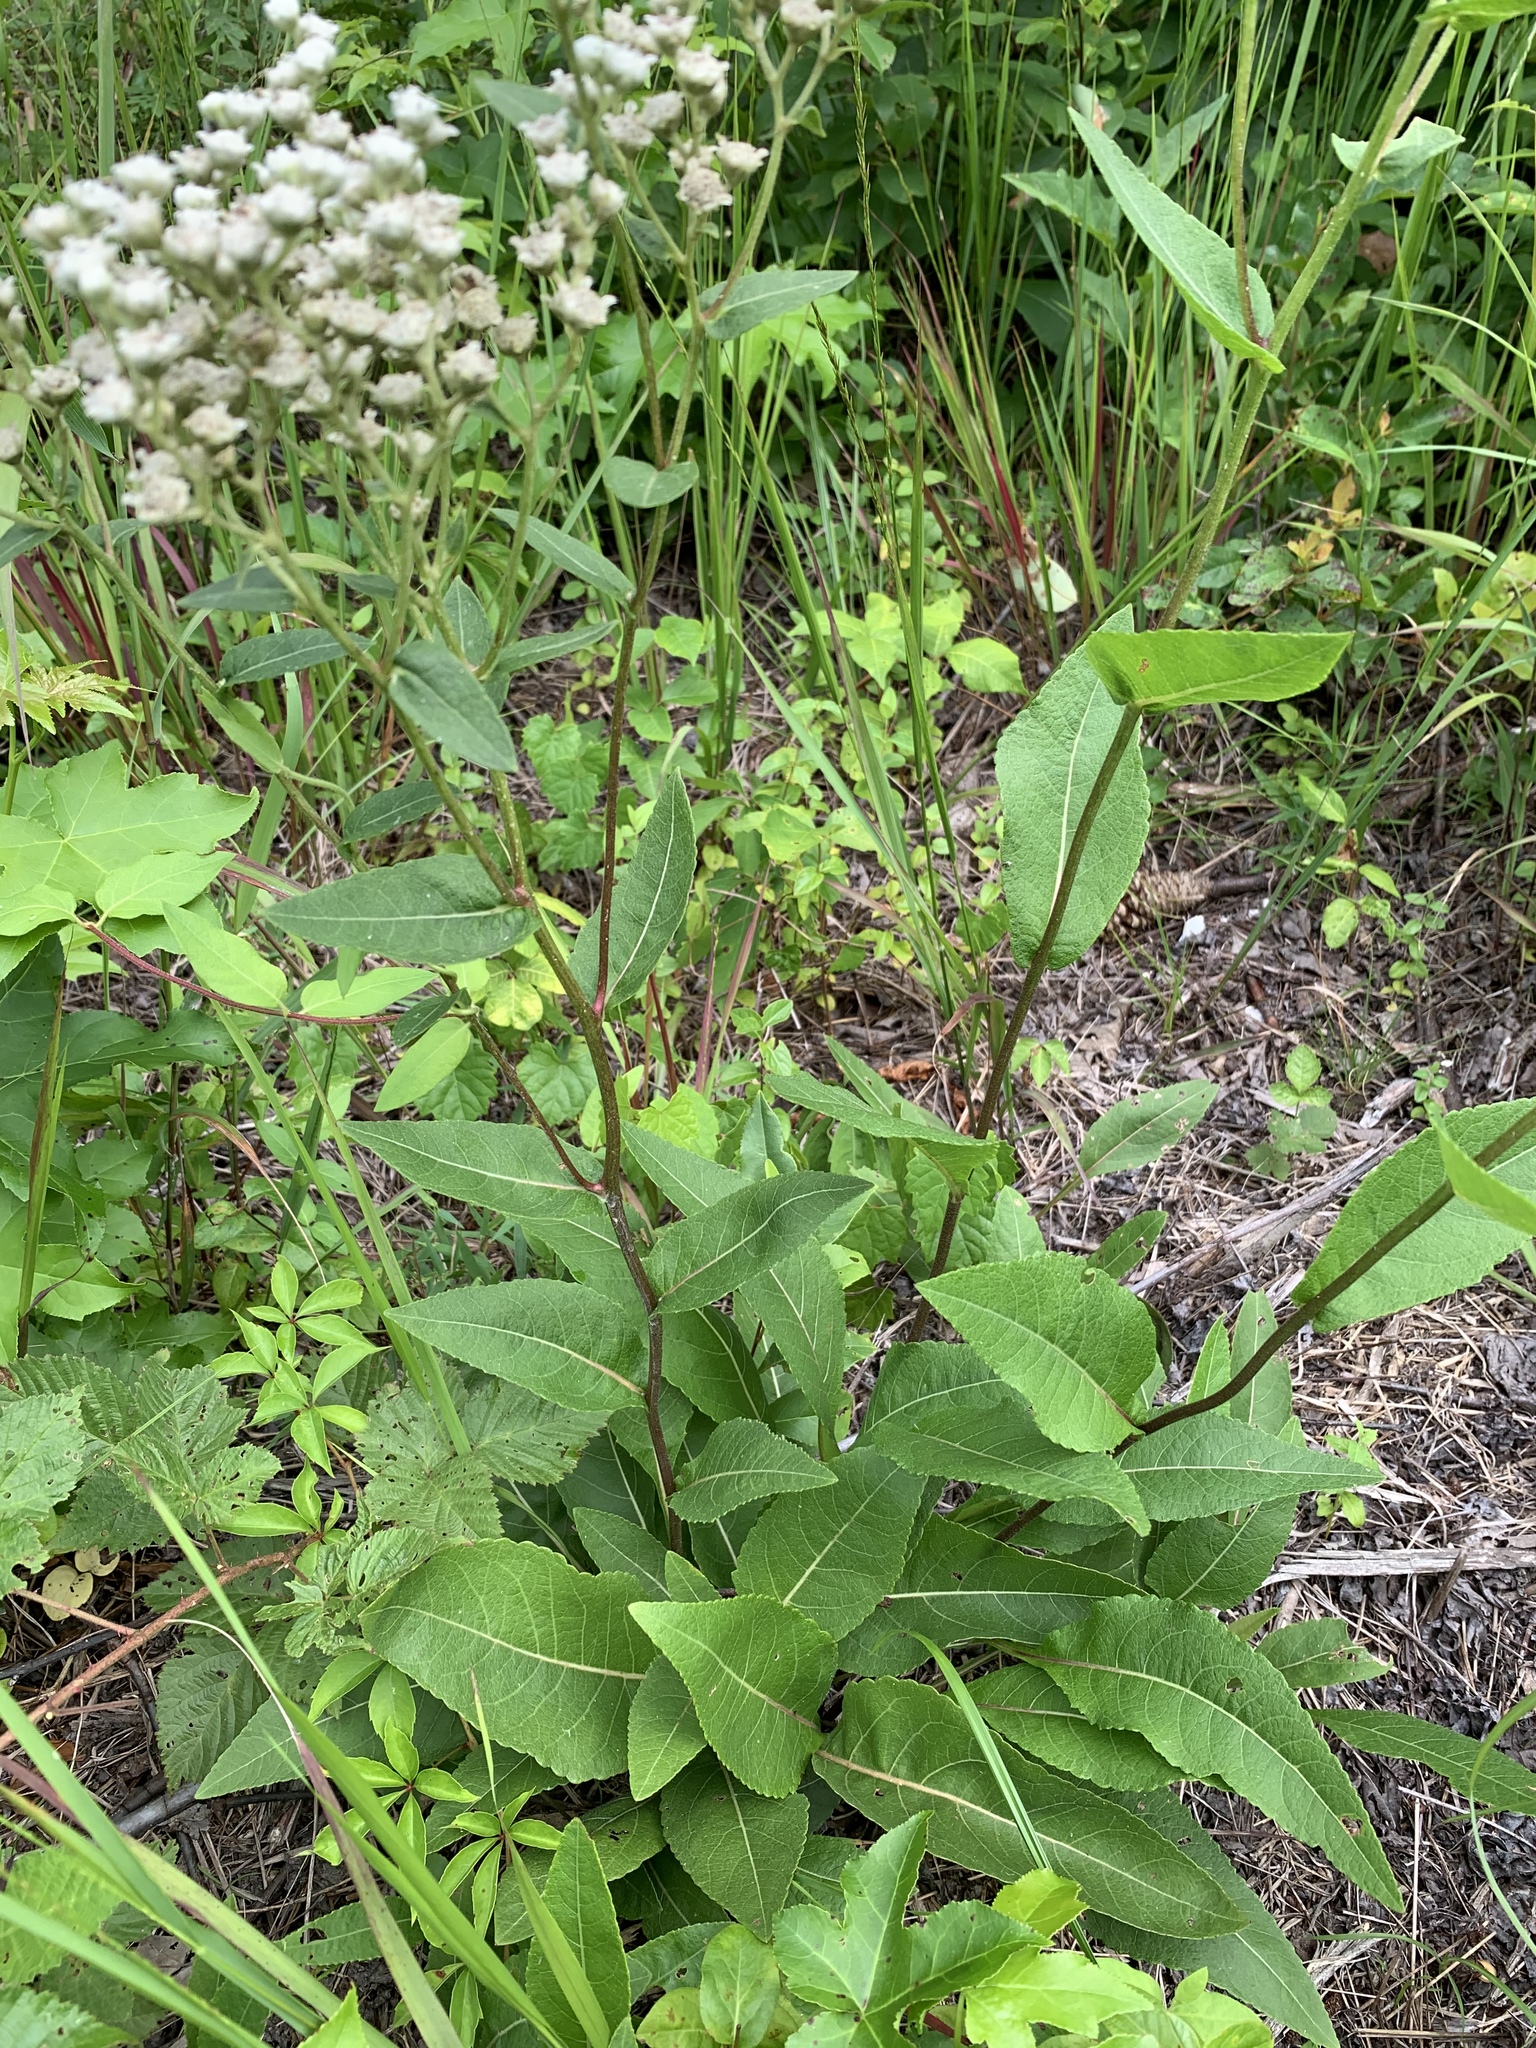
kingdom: Plantae
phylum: Tracheophyta
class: Magnoliopsida
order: Asterales
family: Asteraceae
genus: Parthenium
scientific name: Parthenium integrifolium
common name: American feverfew
